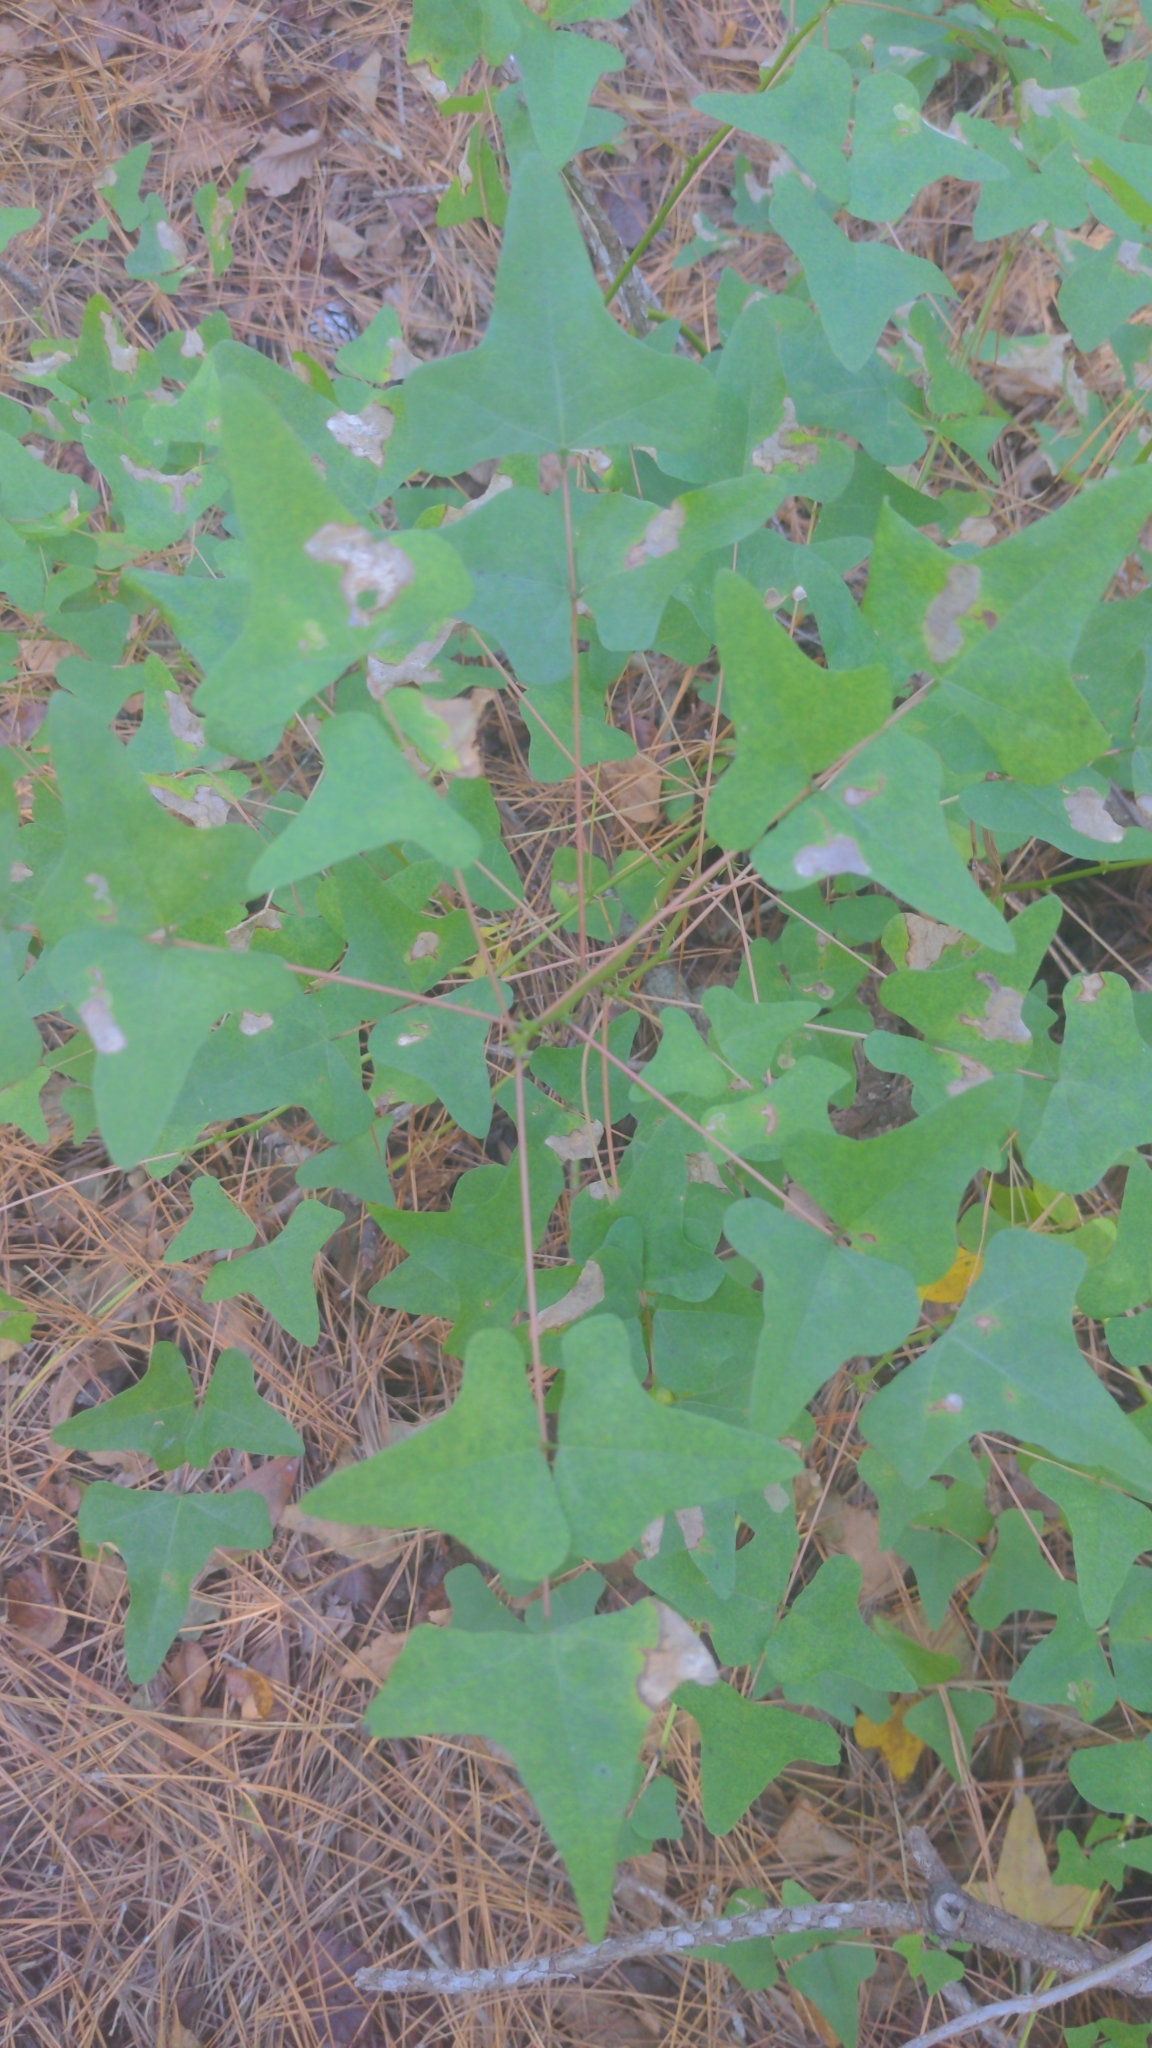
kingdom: Plantae
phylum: Tracheophyta
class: Magnoliopsida
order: Fabales
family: Fabaceae
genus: Erythrina
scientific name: Erythrina herbacea
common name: Coral-bean
